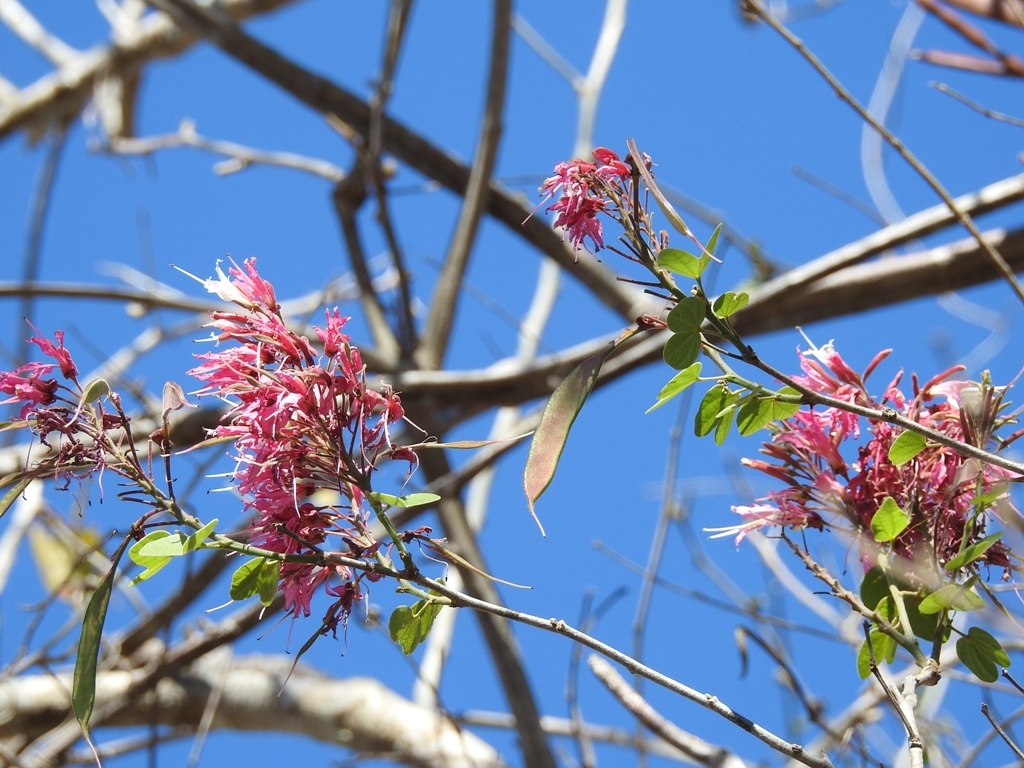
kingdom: Plantae
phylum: Tracheophyta
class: Magnoliopsida
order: Fabales
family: Fabaceae
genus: Bauhinia
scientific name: Bauhinia divaricata
